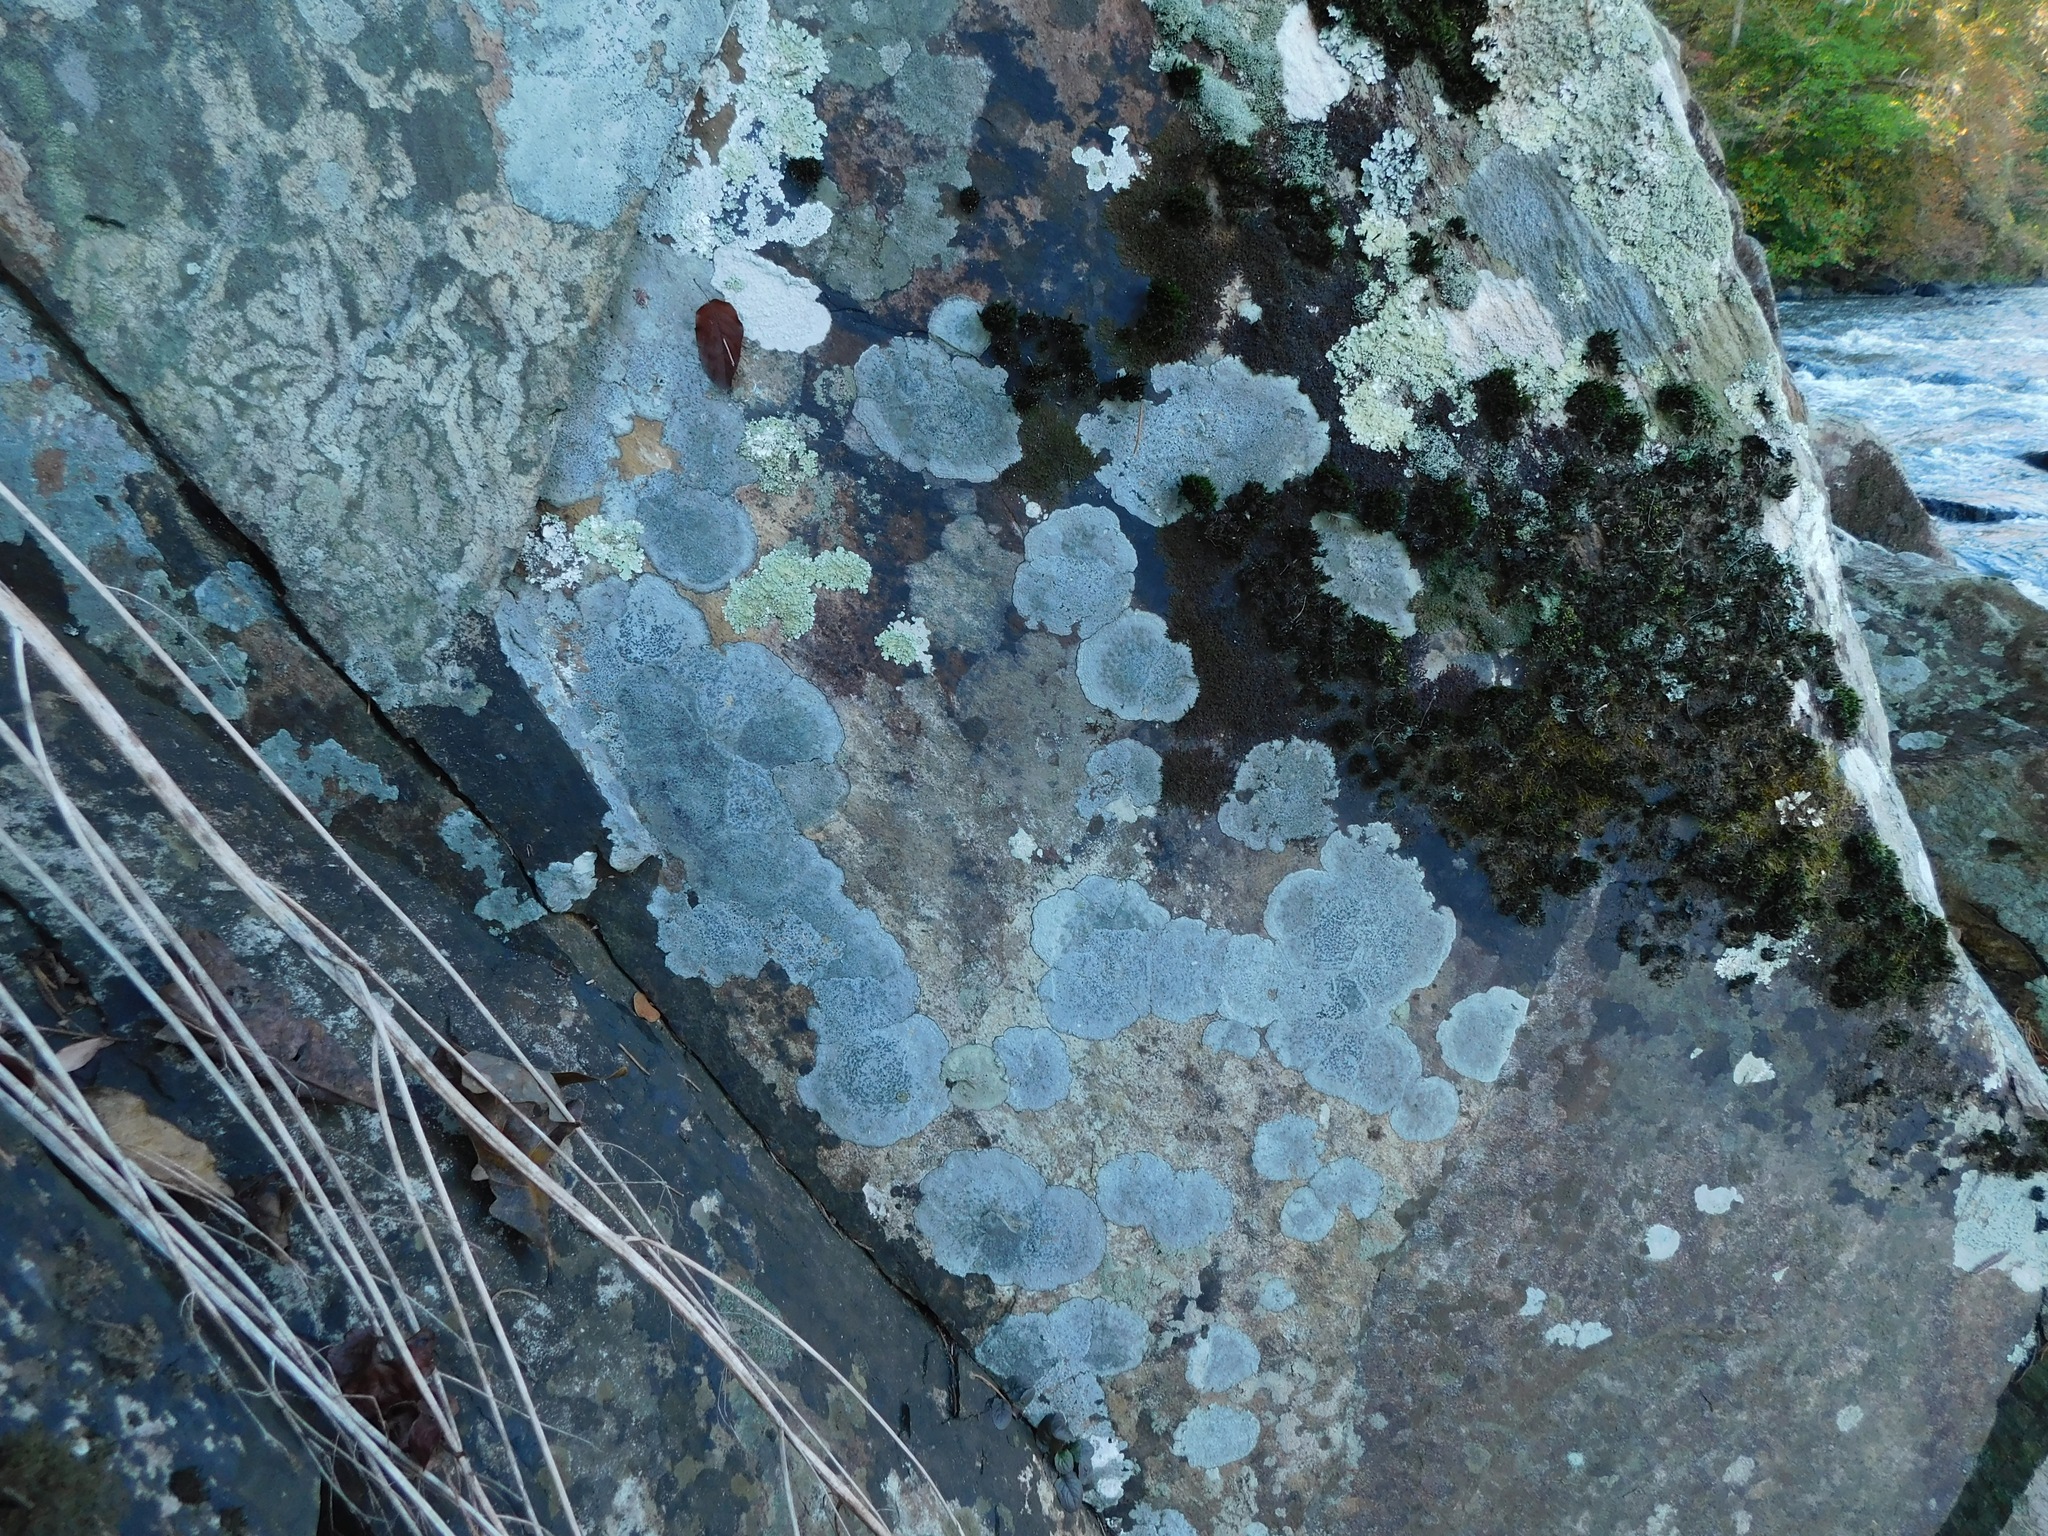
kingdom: Fungi
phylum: Ascomycota
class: Lecanoromycetes
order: Lecideales
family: Lecideaceae
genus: Porpidia
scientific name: Porpidia carlottiana
